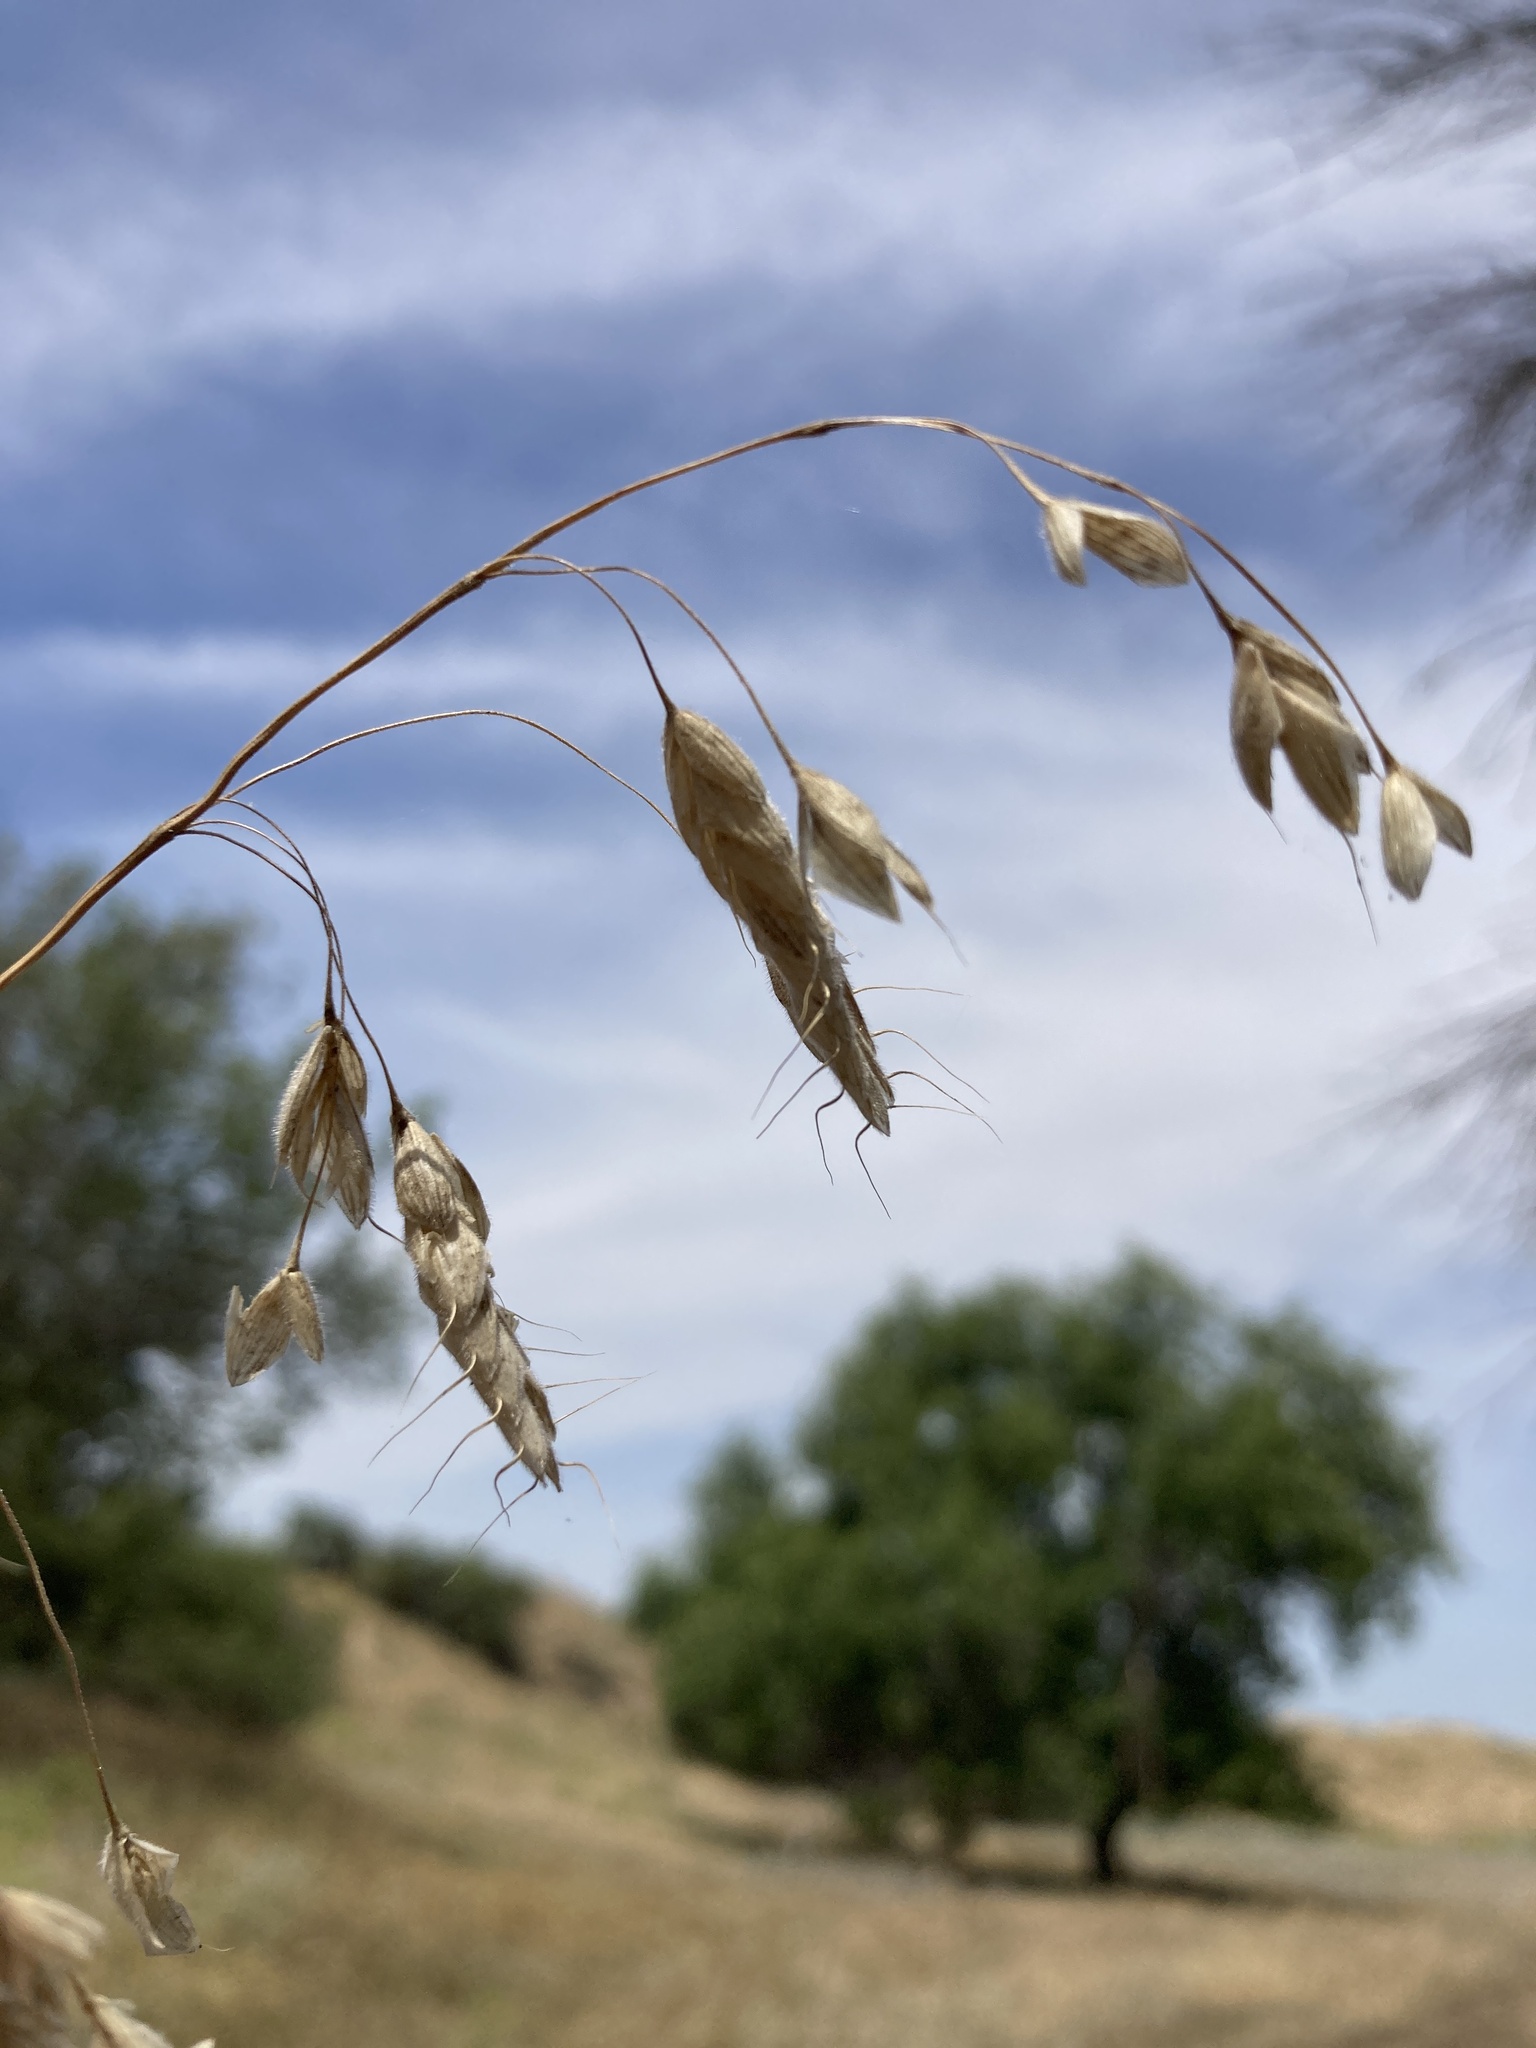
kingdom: Plantae
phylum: Tracheophyta
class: Liliopsida
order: Poales
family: Poaceae
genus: Bromus
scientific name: Bromus squarrosus
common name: Corn brome
